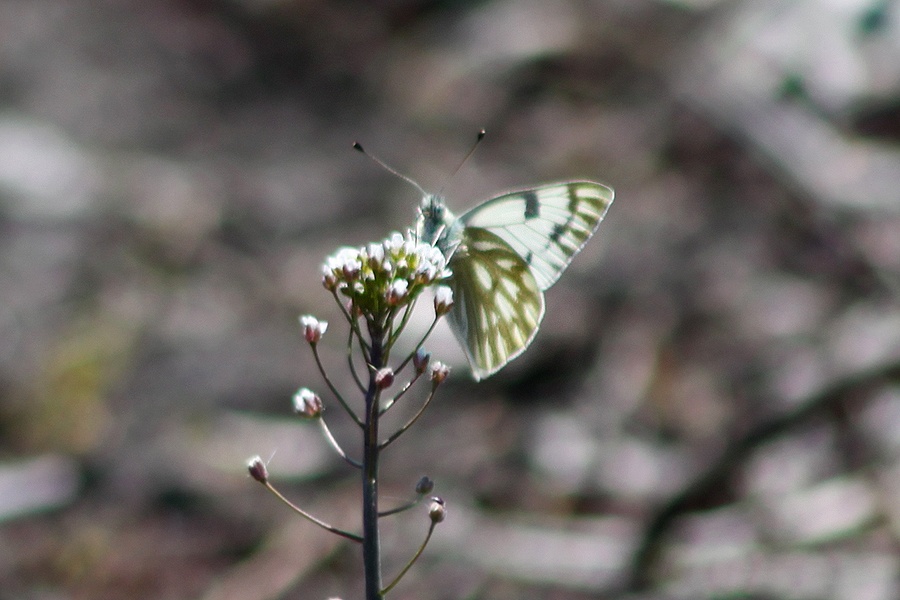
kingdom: Animalia
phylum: Arthropoda
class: Insecta
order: Lepidoptera
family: Pieridae
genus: Pontia
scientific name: Pontia occidentalis
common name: Western white
